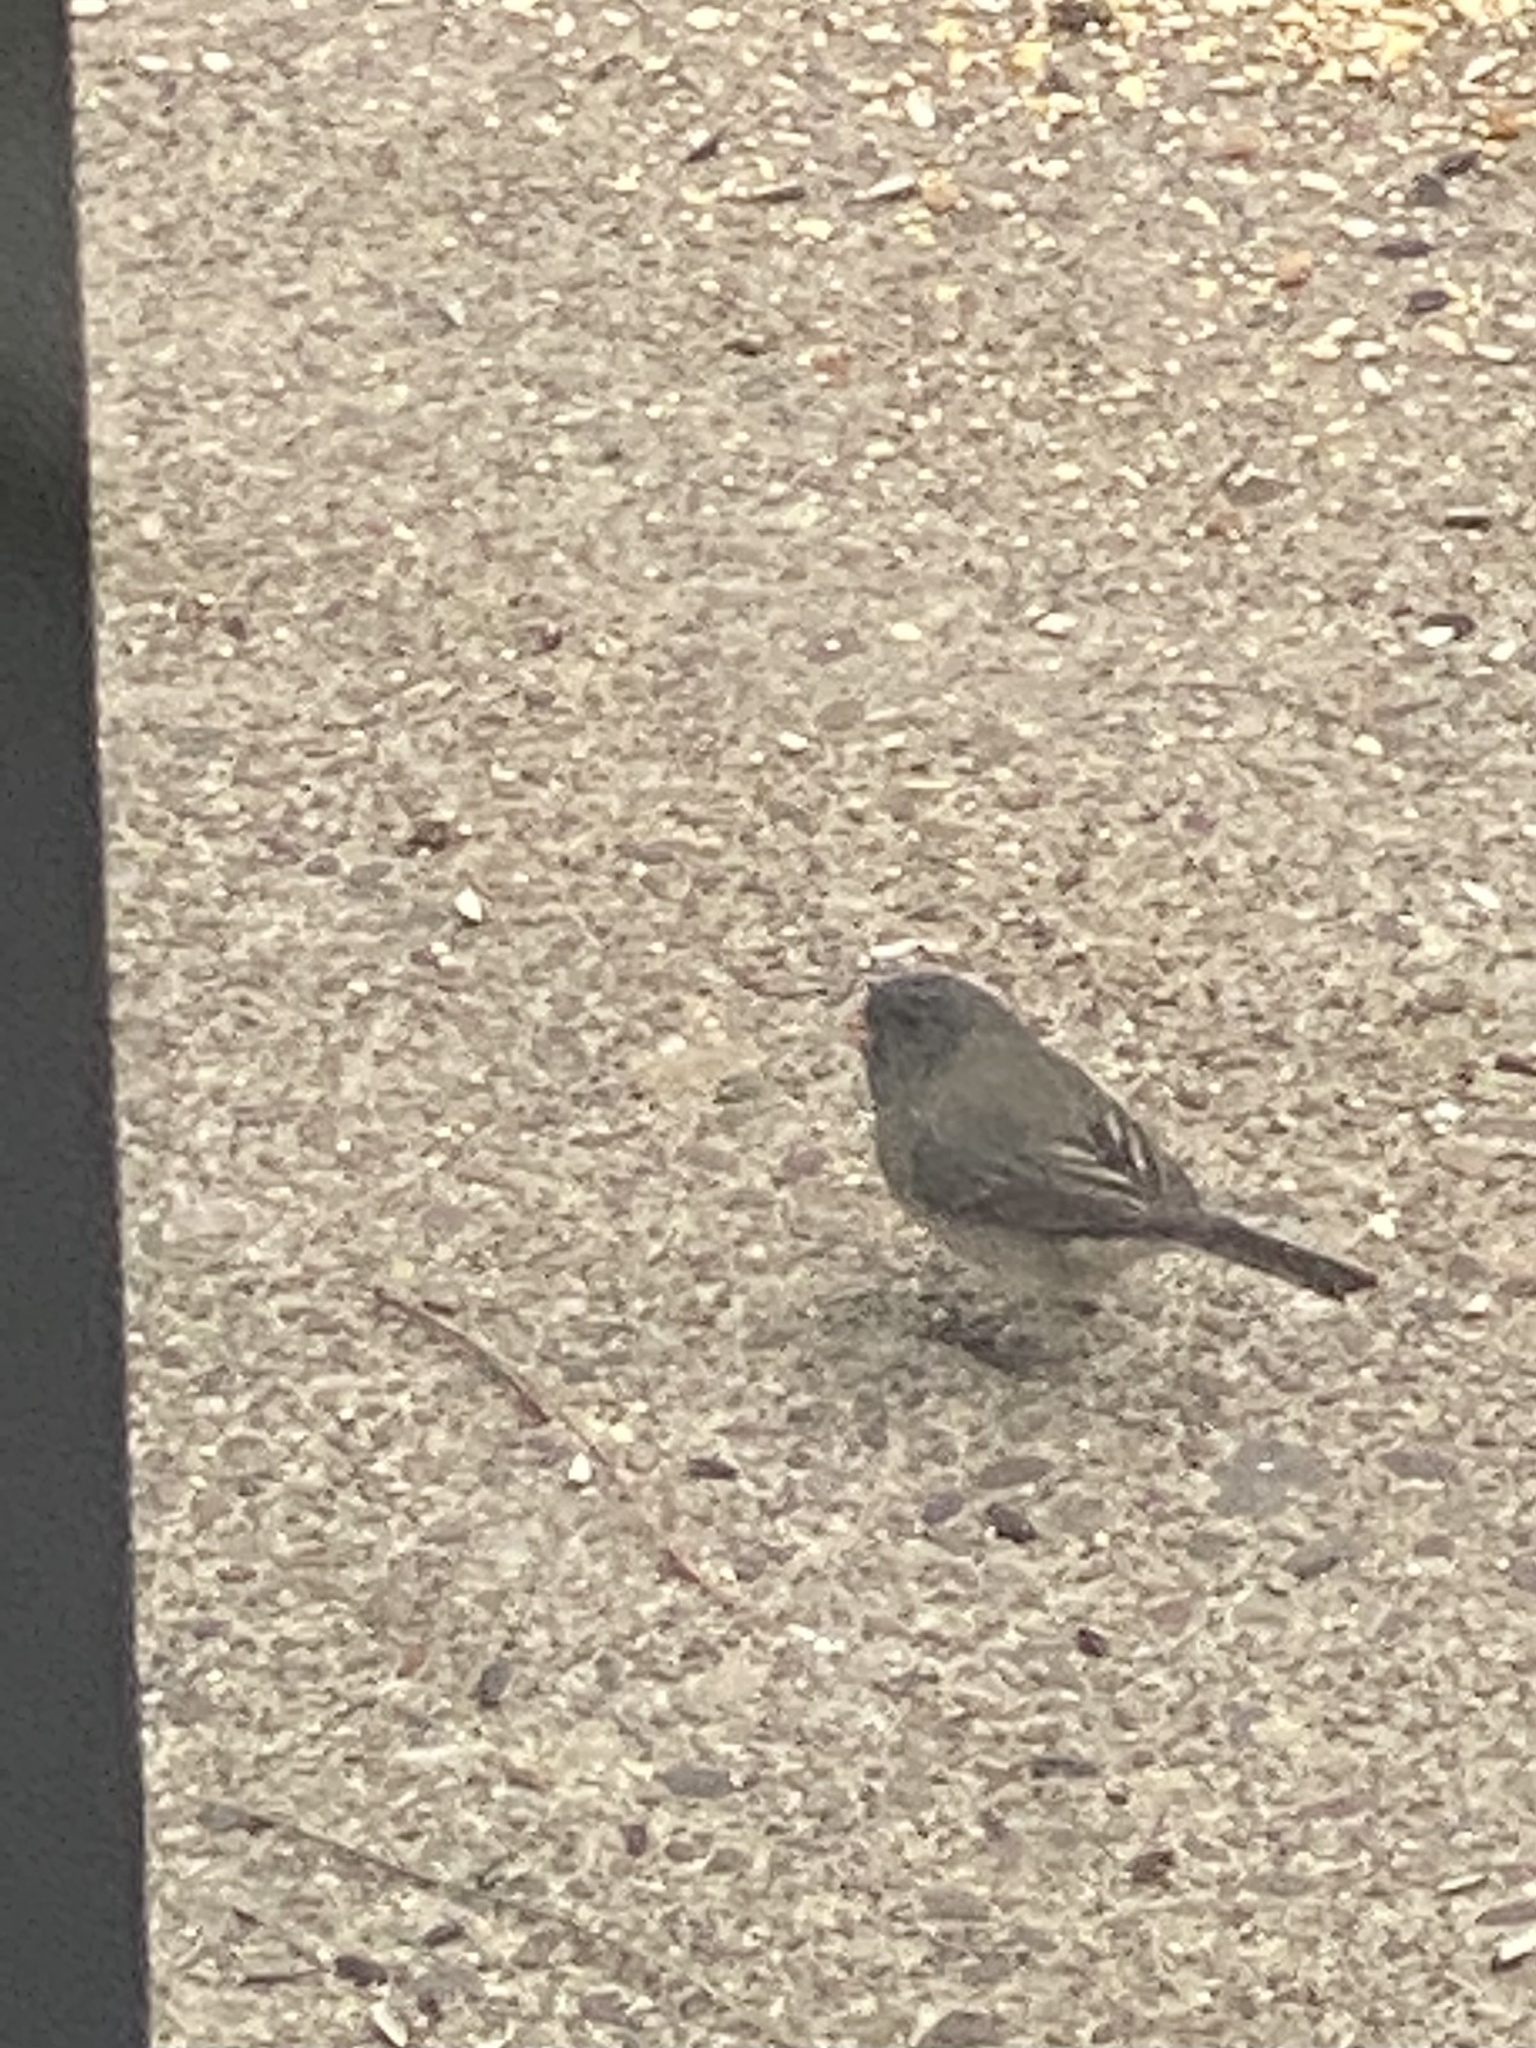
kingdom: Animalia
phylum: Chordata
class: Aves
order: Passeriformes
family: Passerellidae
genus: Junco
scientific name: Junco hyemalis
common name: Dark-eyed junco
